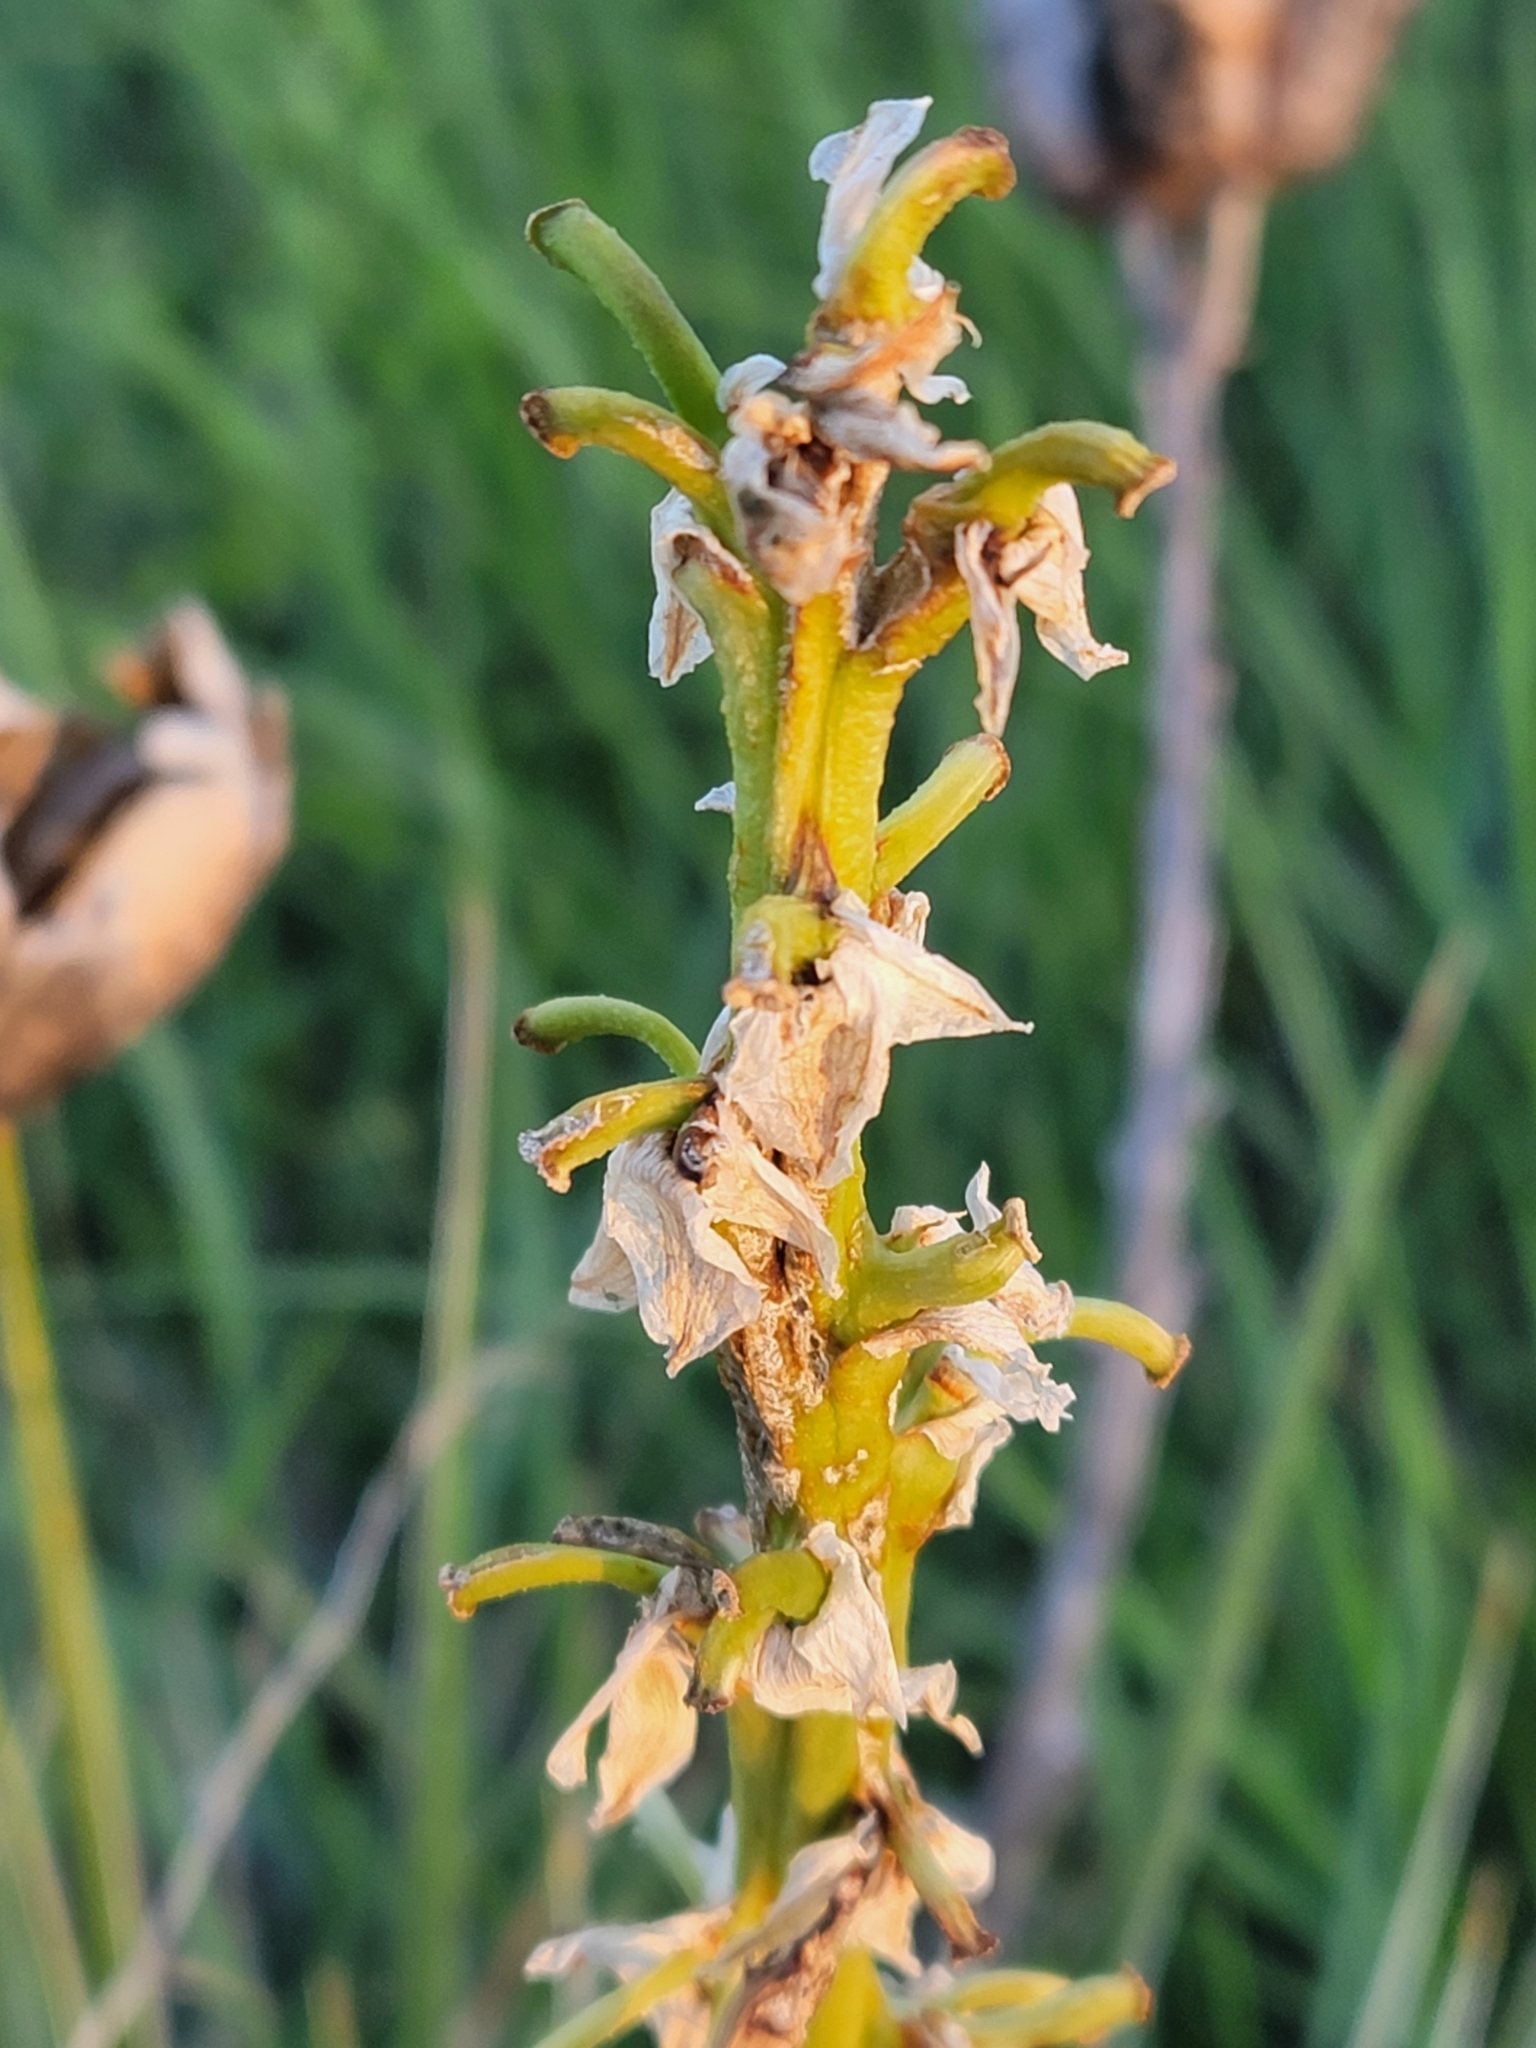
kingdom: Plantae
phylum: Tracheophyta
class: Liliopsida
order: Asparagales
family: Asparagaceae
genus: Yucca
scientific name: Yucca glauca
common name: Great plains yucca
